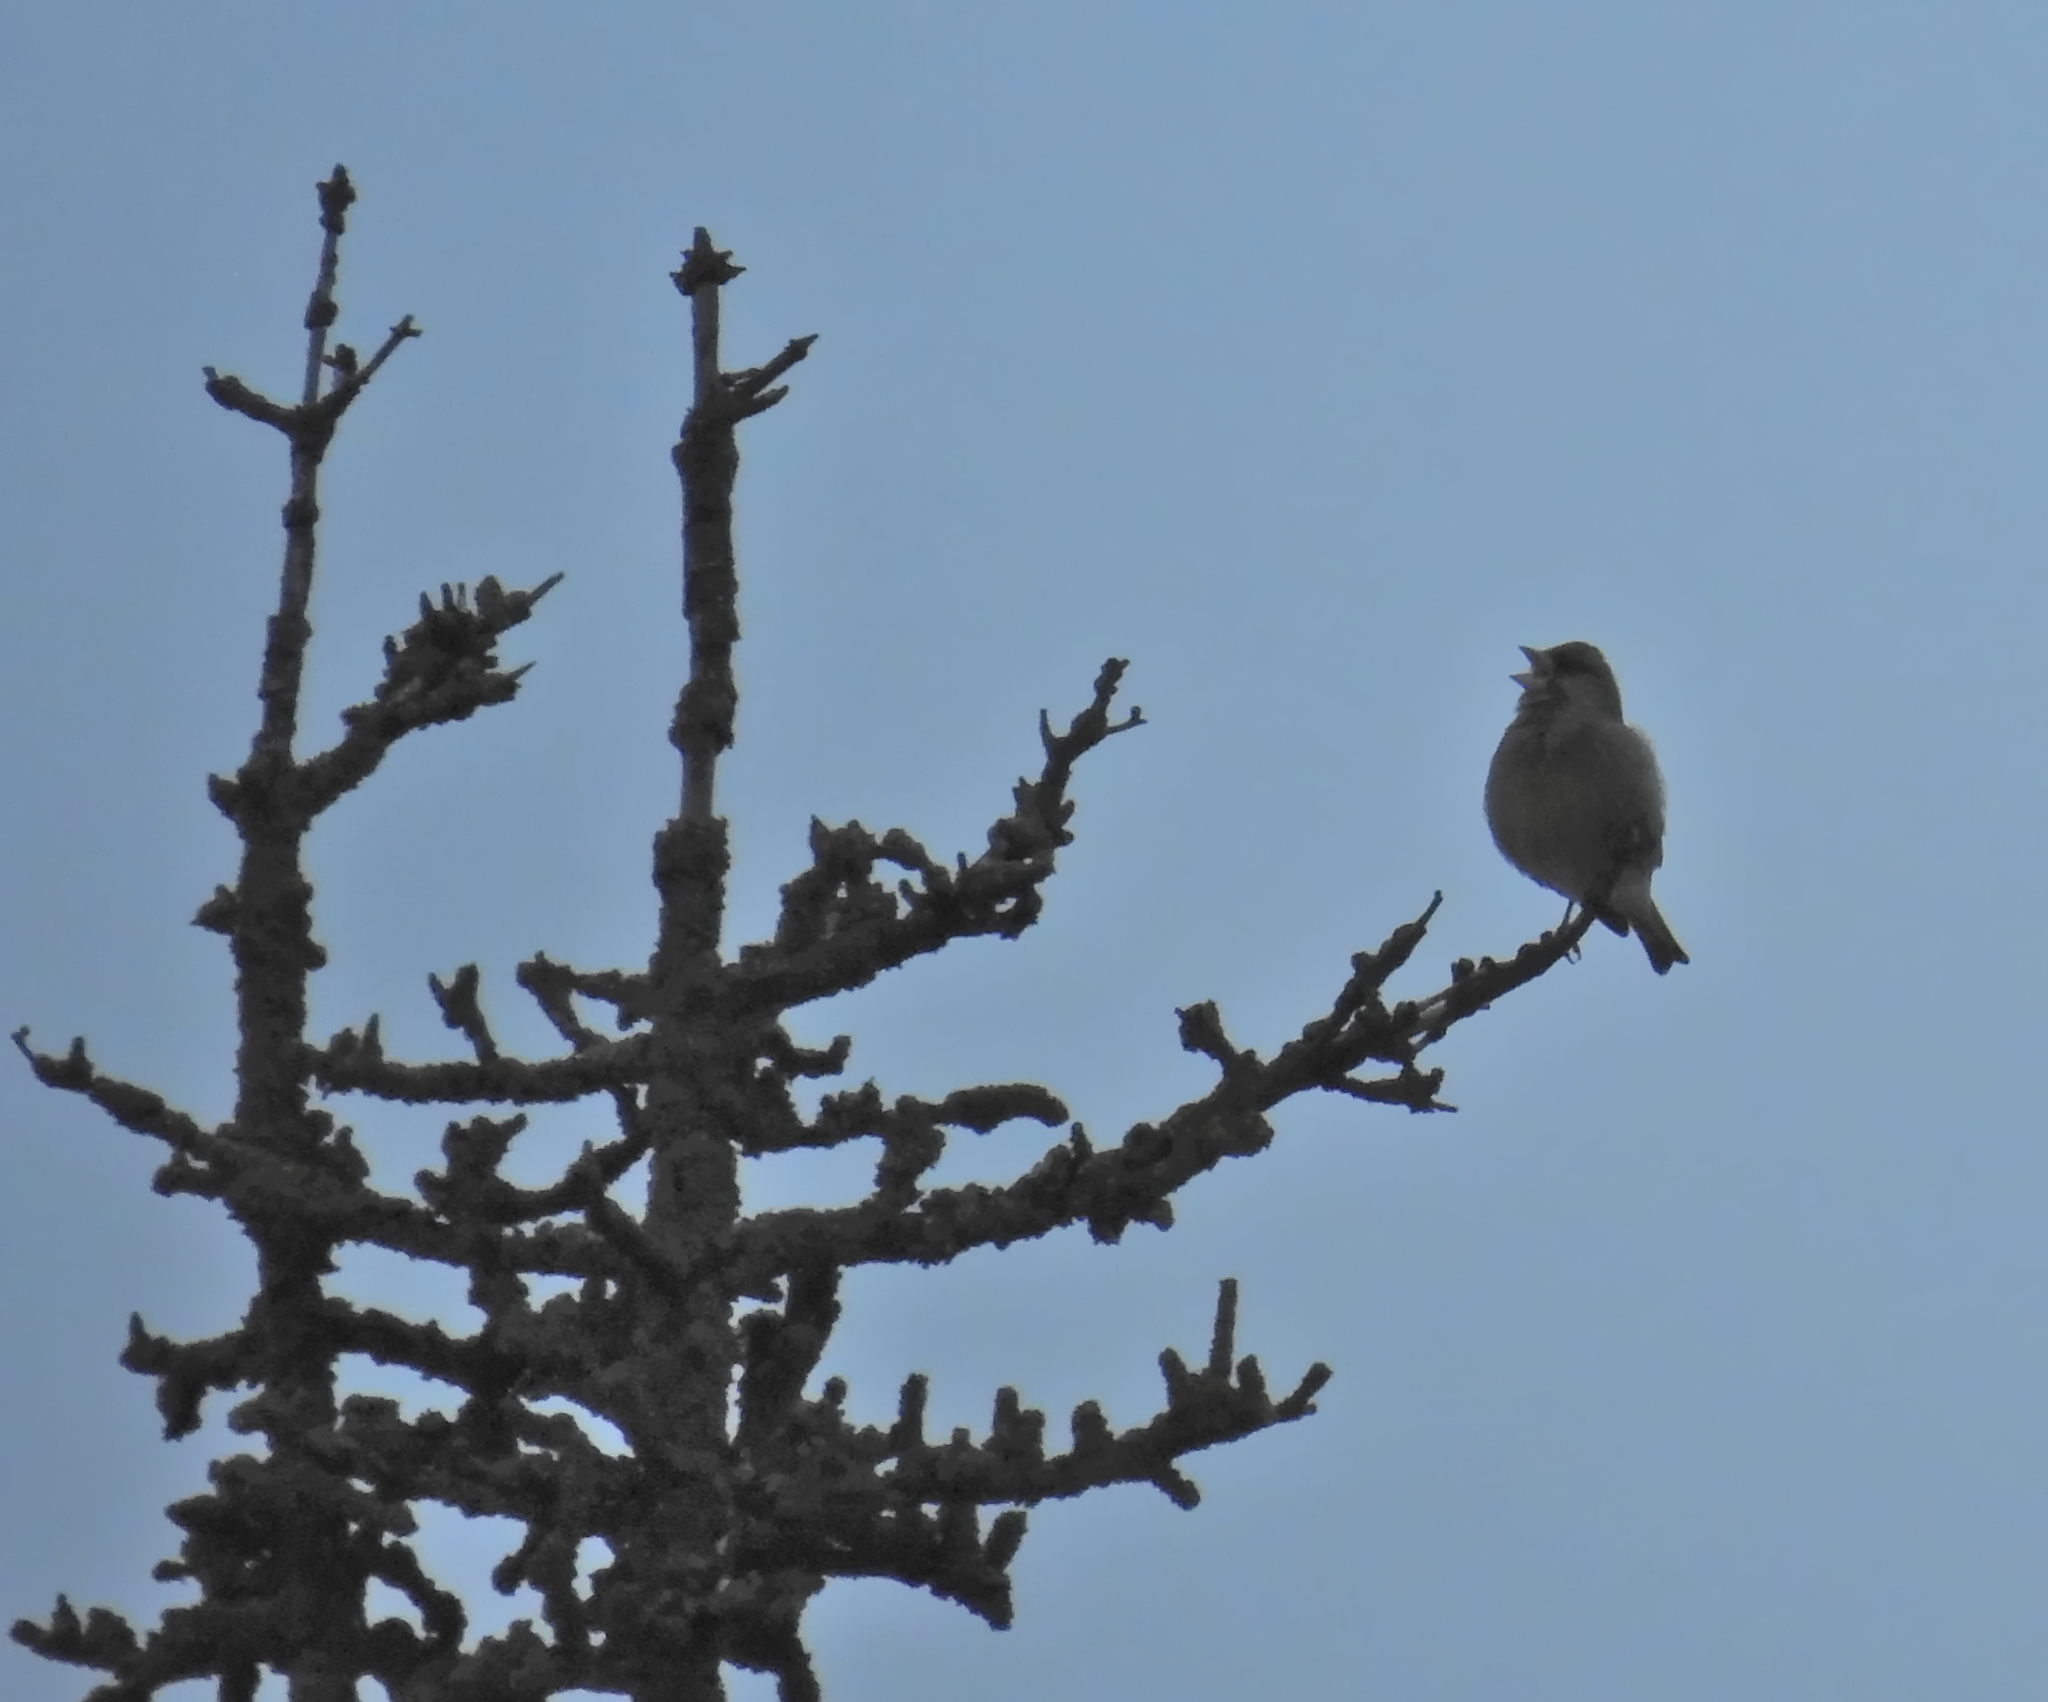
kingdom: Plantae
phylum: Tracheophyta
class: Liliopsida
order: Poales
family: Poaceae
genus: Chloris
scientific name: Chloris chloris
